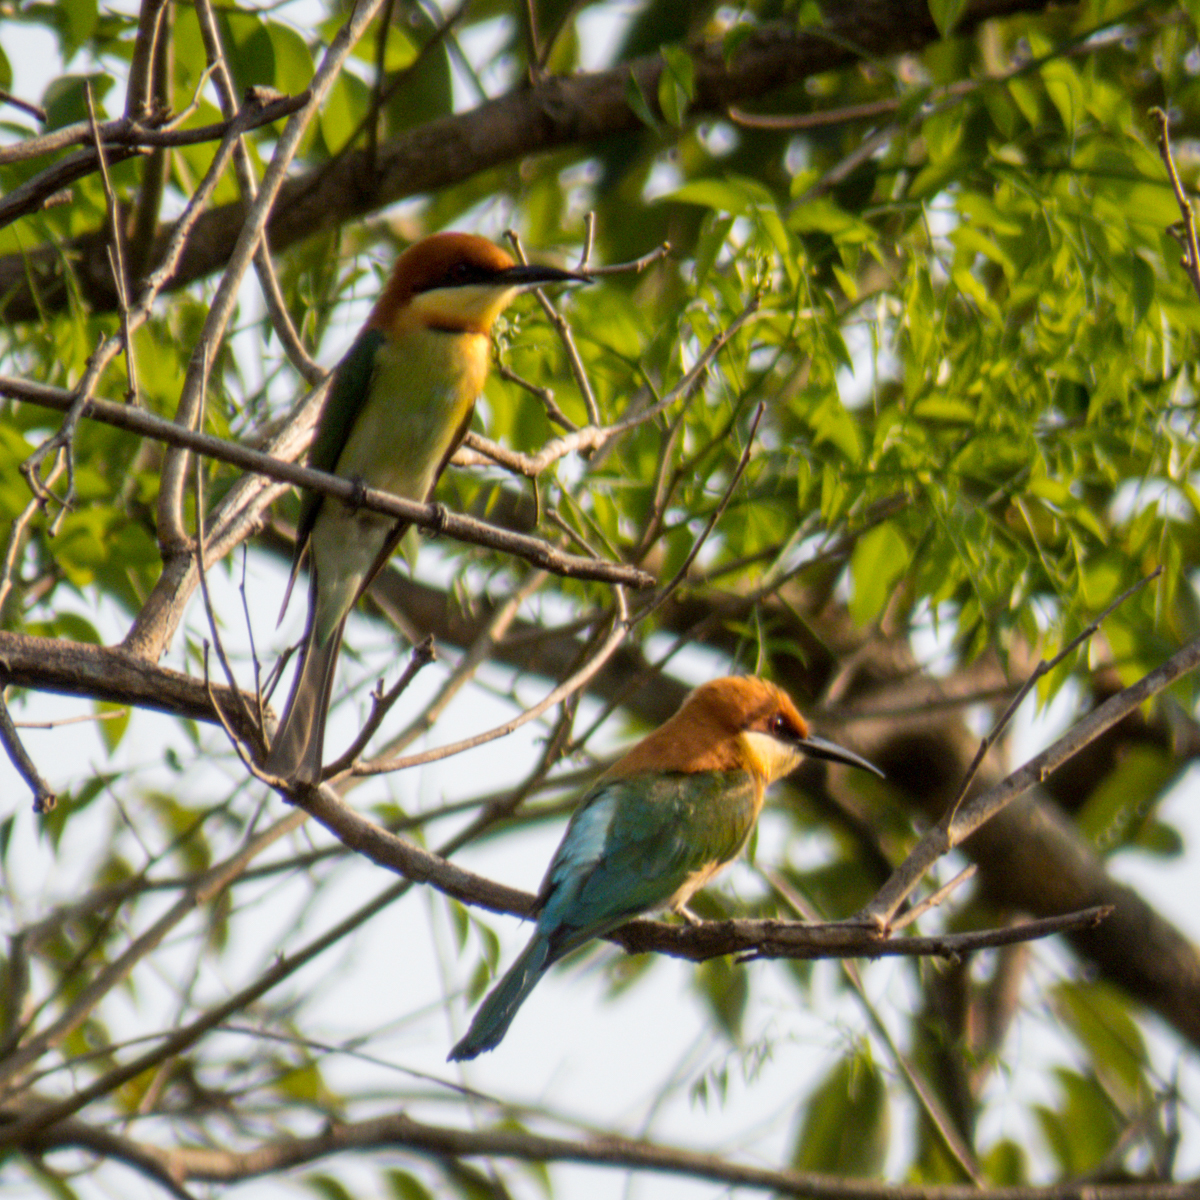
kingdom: Animalia
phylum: Chordata
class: Aves
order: Coraciiformes
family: Meropidae
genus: Merops
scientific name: Merops leschenaulti
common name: Chestnut-headed bee-eater
